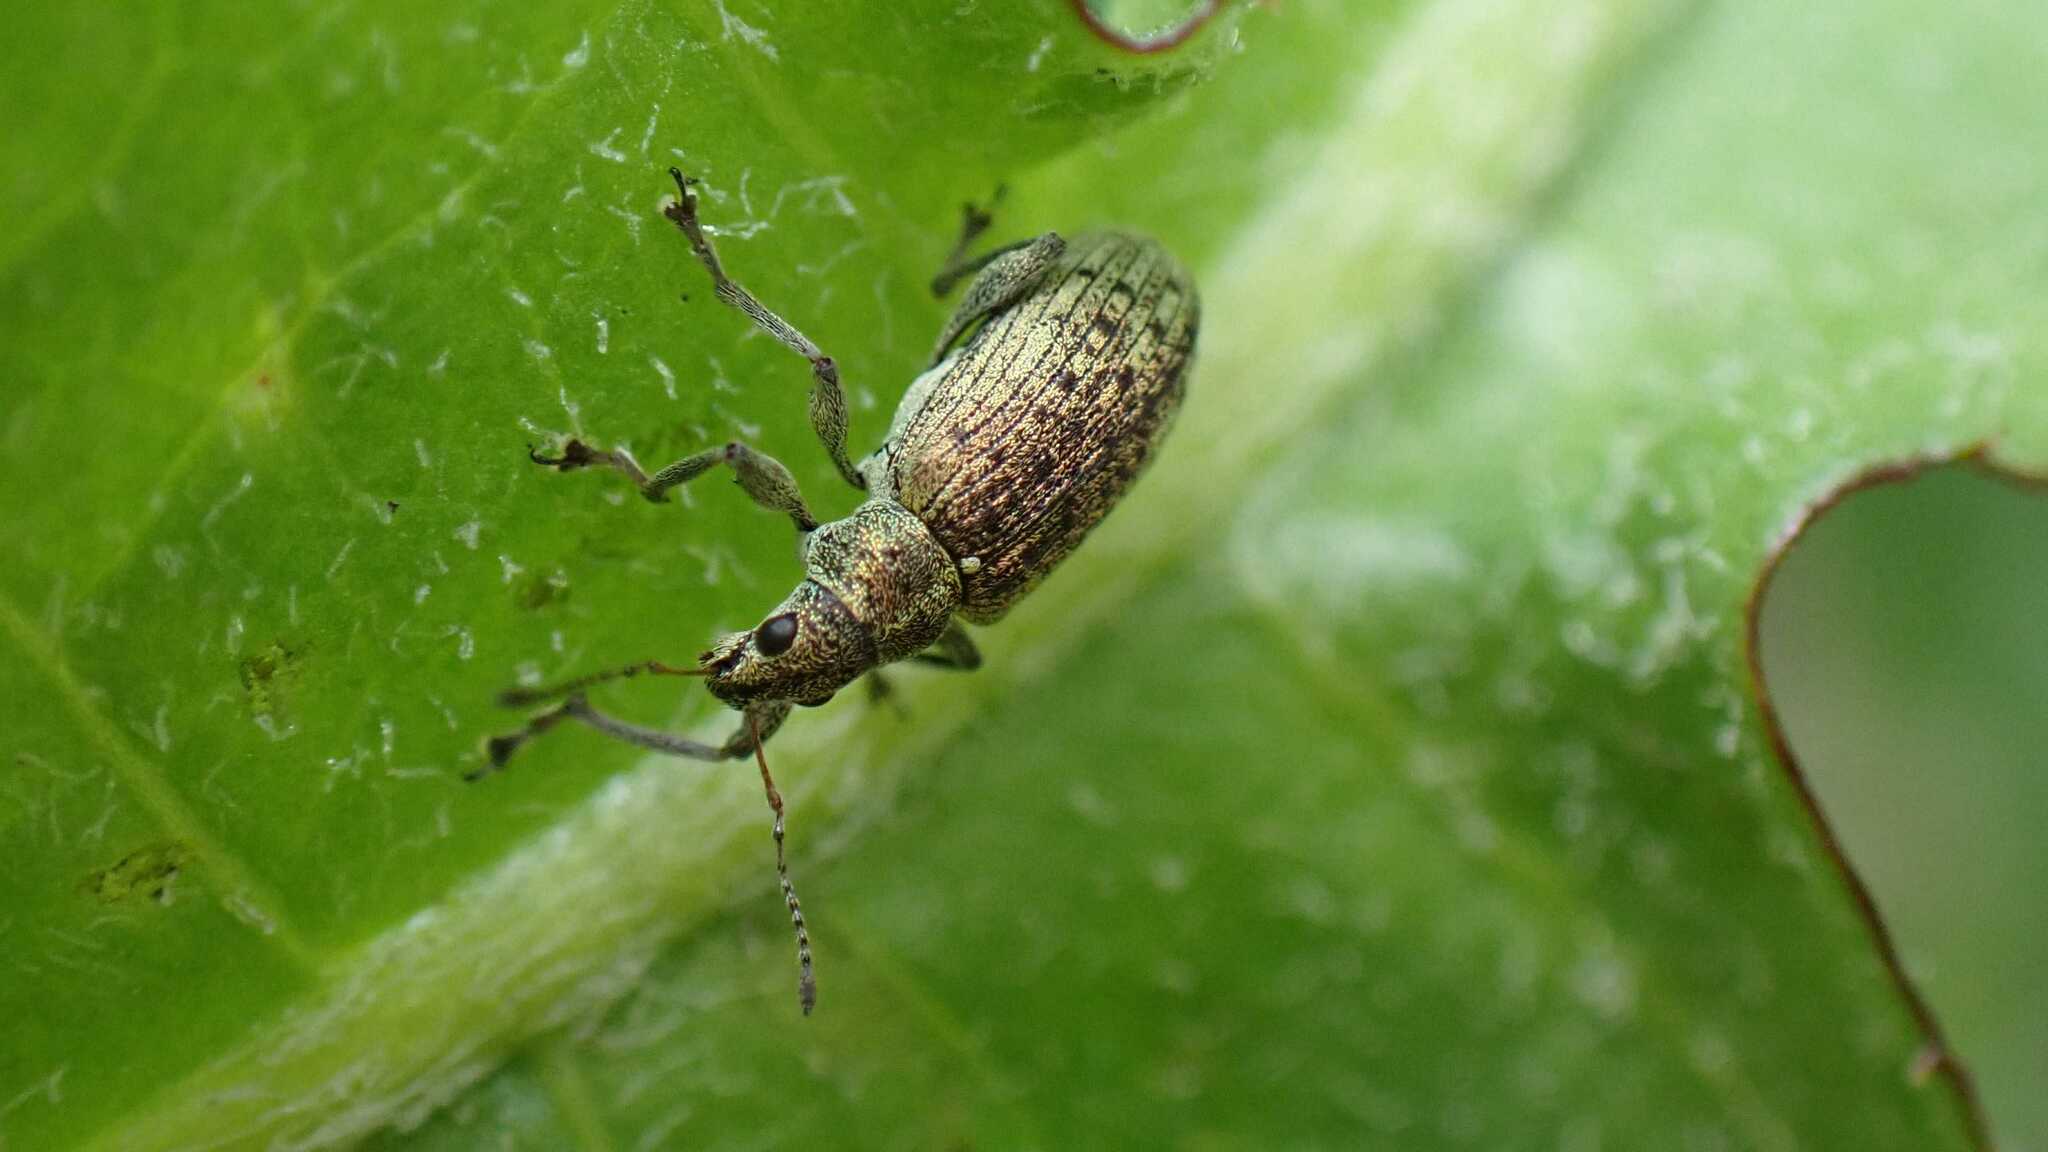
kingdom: Animalia
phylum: Arthropoda
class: Insecta
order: Coleoptera
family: Curculionidae
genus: Polydrusus
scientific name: Polydrusus cervinus
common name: Weevil
